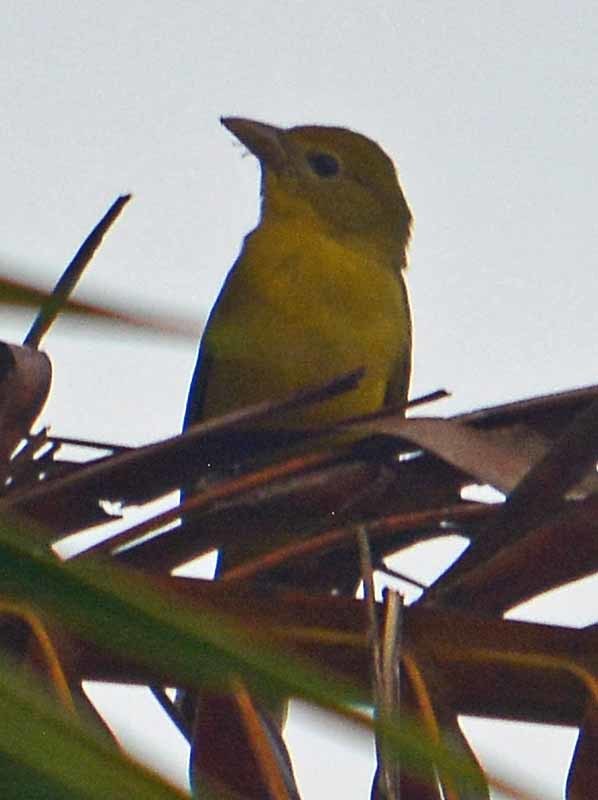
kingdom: Animalia
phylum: Chordata
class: Aves
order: Passeriformes
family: Cardinalidae
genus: Piranga
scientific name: Piranga rubra
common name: Summer tanager
